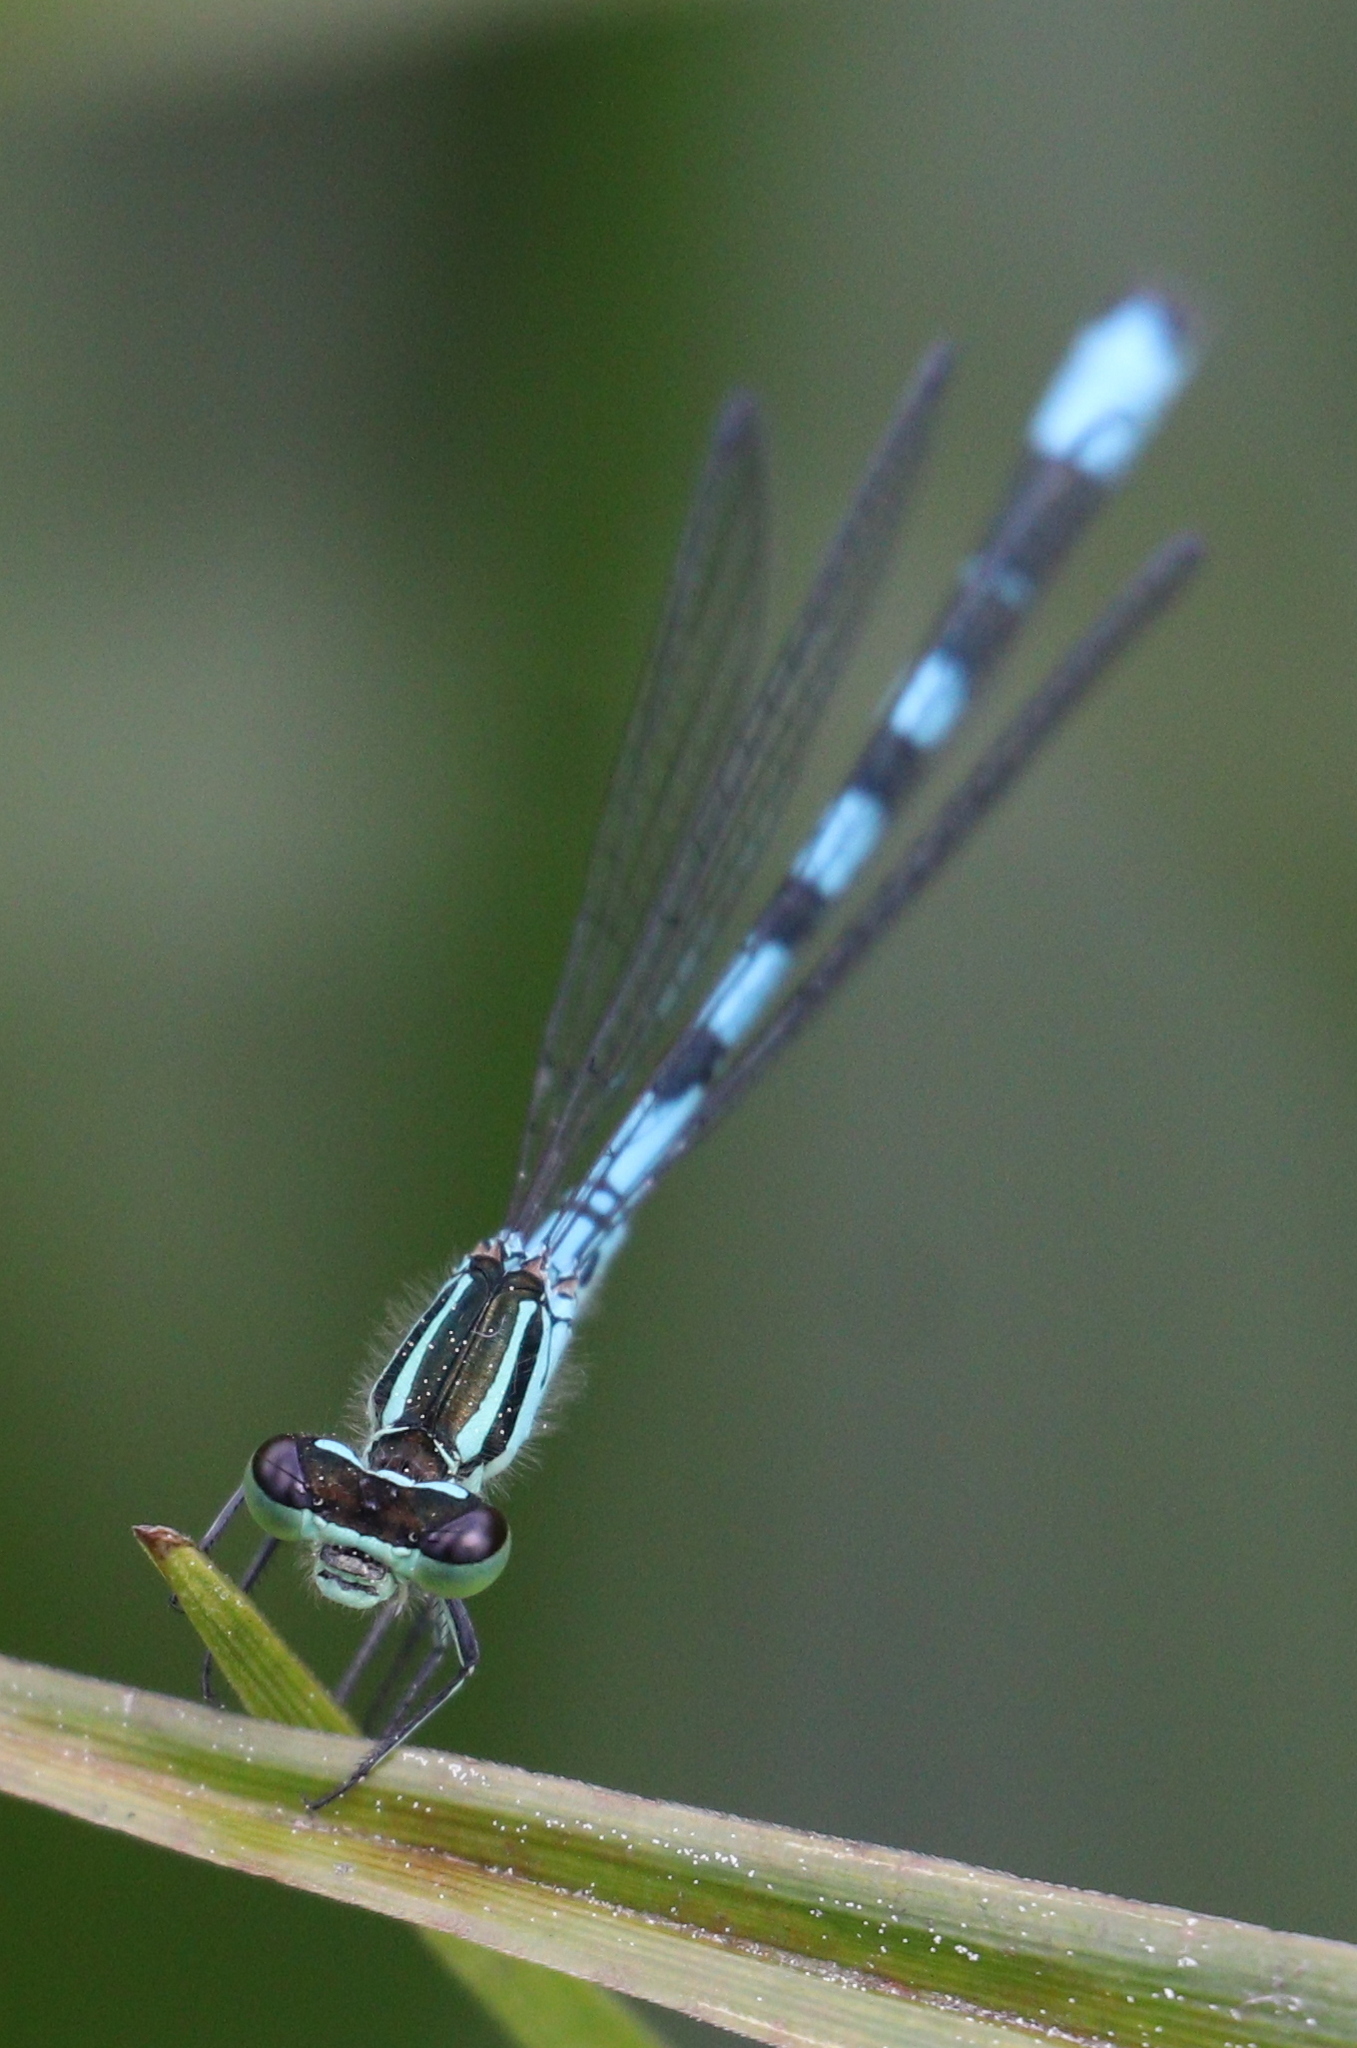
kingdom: Animalia
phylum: Arthropoda
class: Insecta
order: Odonata
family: Coenagrionidae
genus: Coenagrion
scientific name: Coenagrion hastulatum
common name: Spearhead bluet
